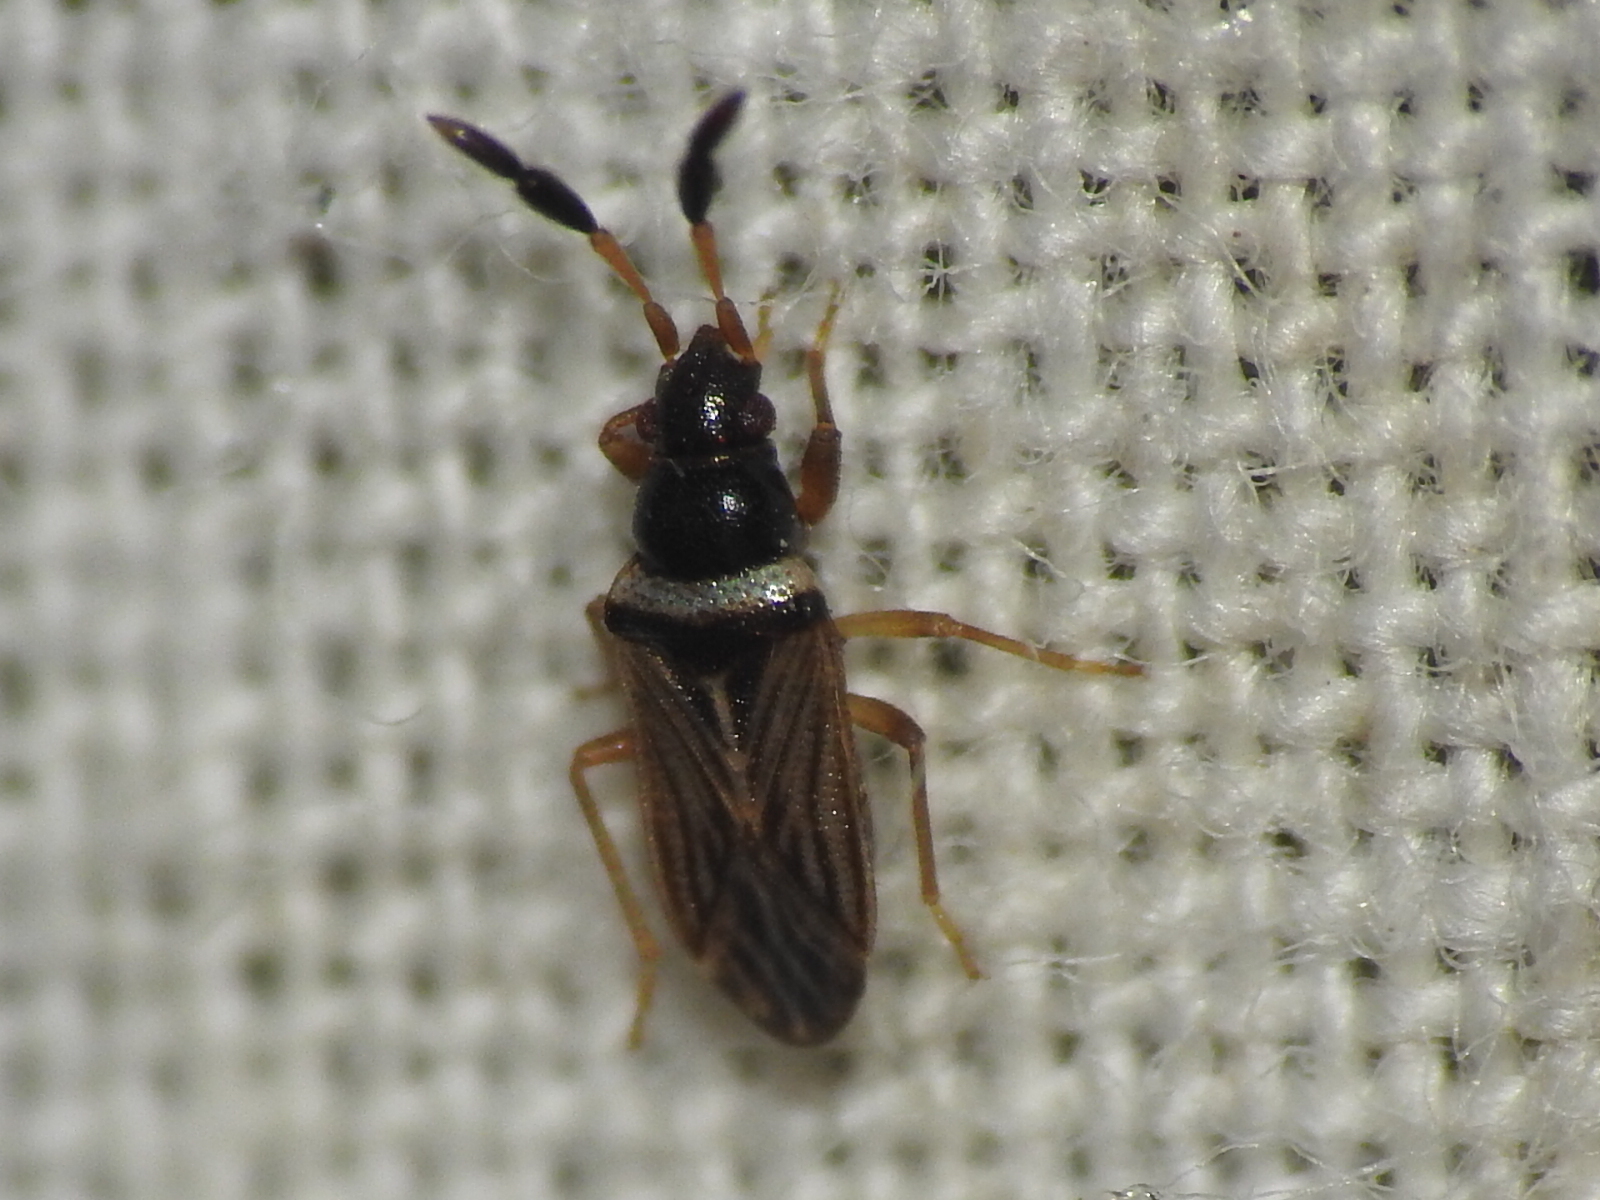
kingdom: Animalia
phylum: Arthropoda
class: Insecta
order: Hemiptera
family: Rhyparochromidae
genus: Ptochiomera
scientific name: Ptochiomera nodosa
